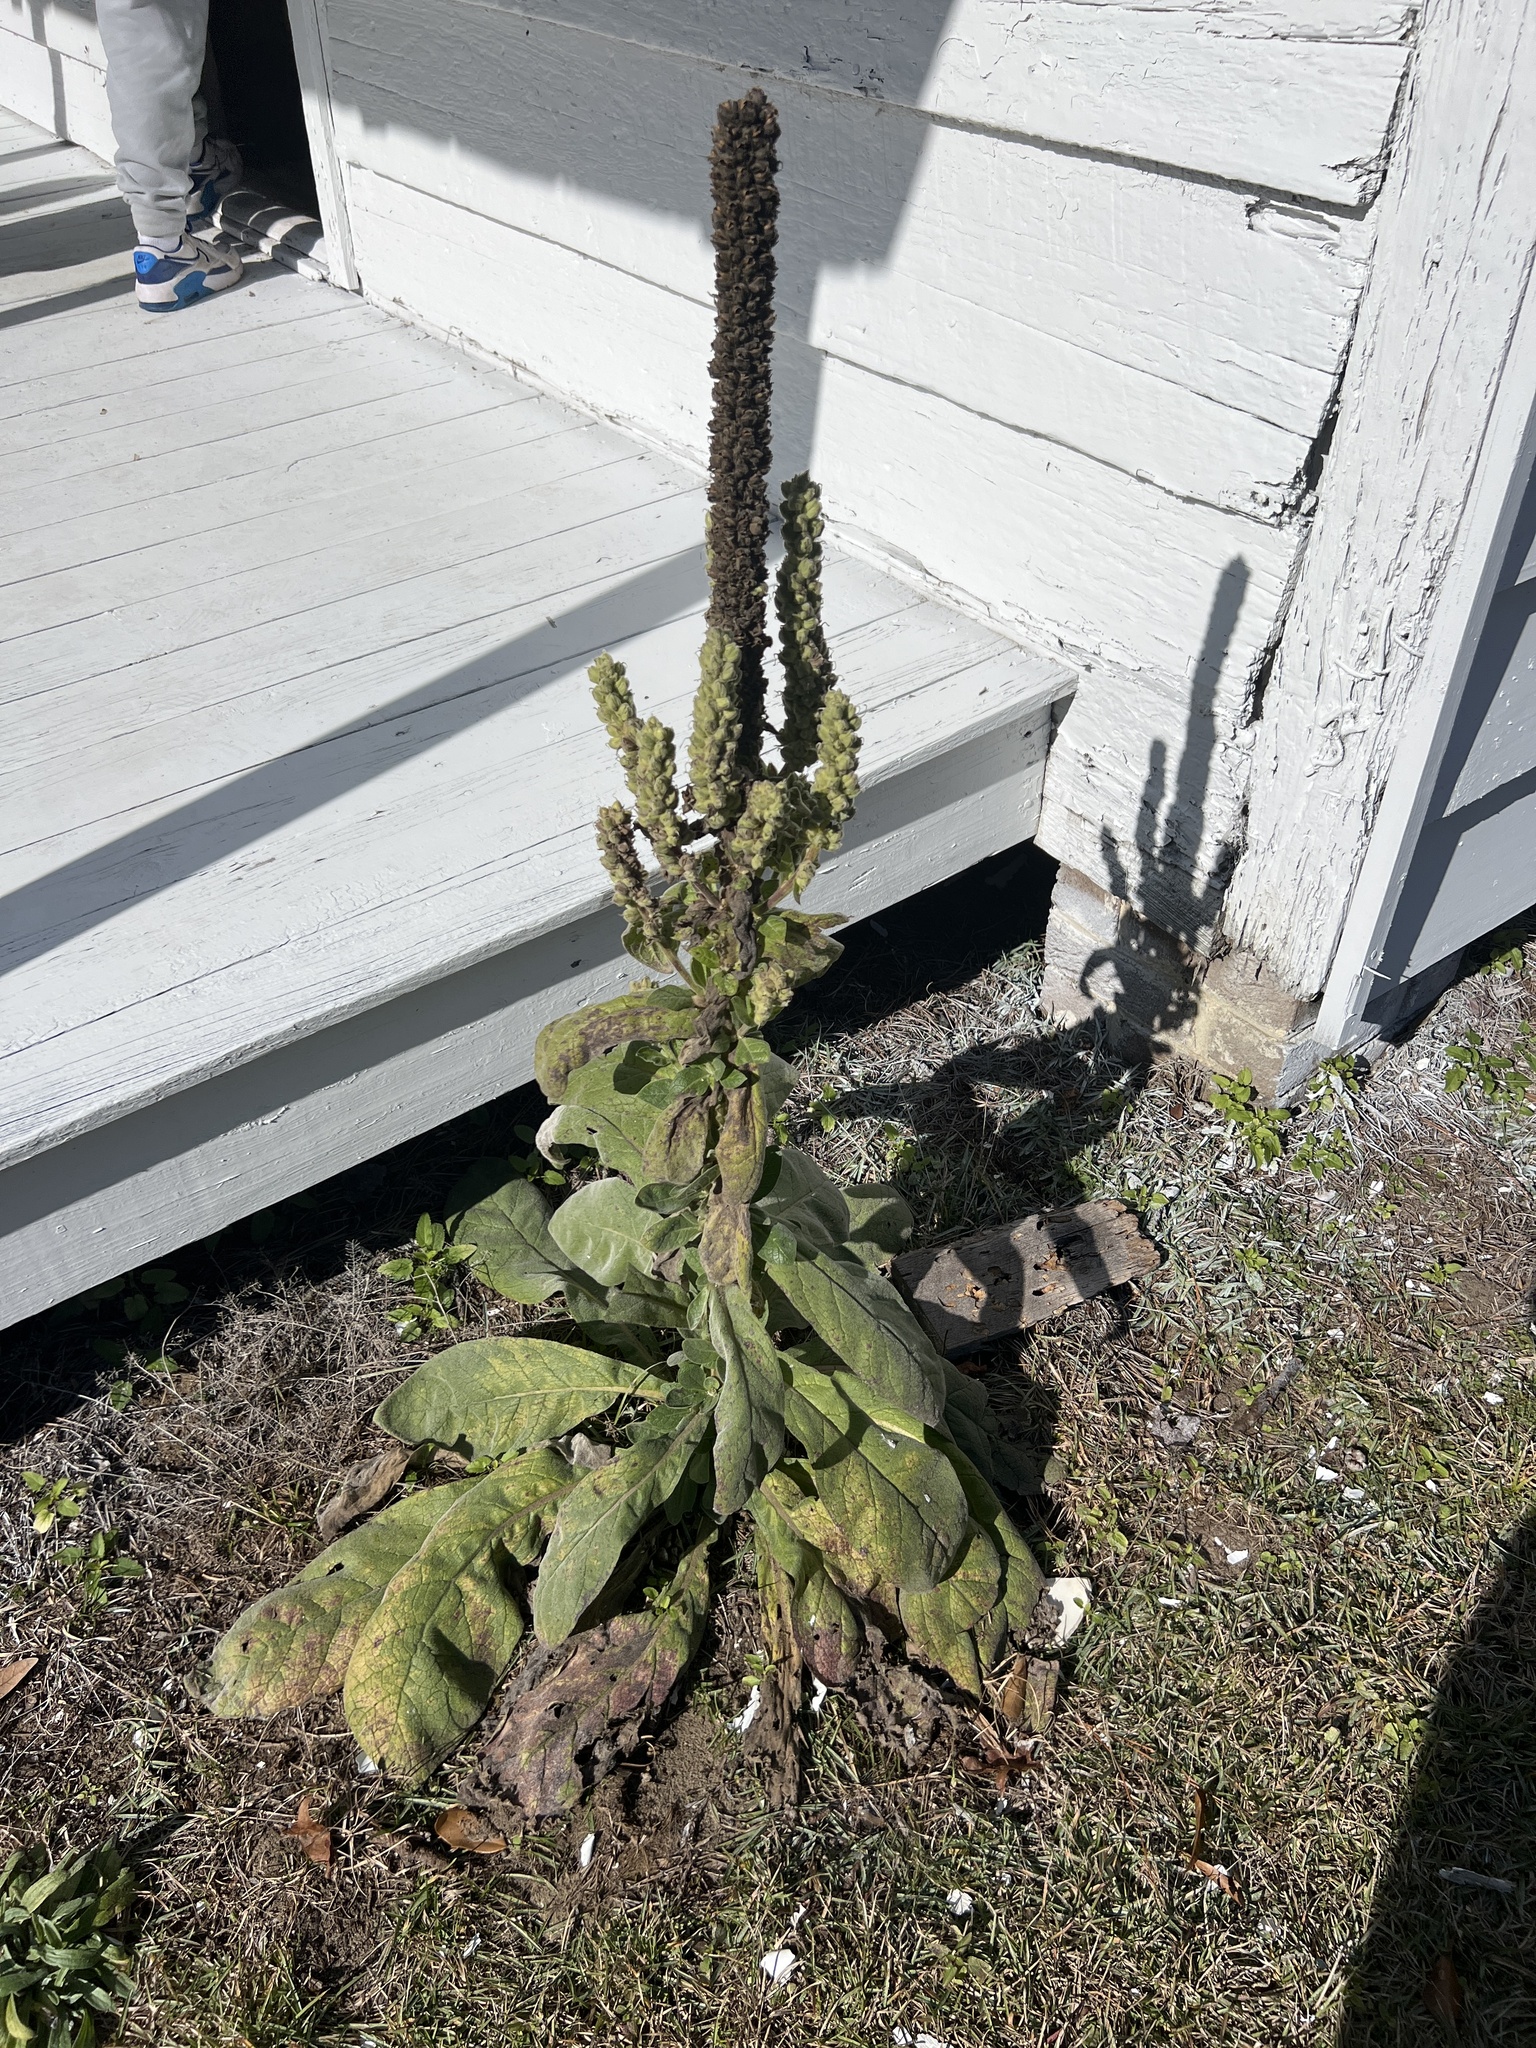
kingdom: Plantae
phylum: Tracheophyta
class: Magnoliopsida
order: Lamiales
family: Scrophulariaceae
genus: Verbascum
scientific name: Verbascum thapsus
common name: Common mullein
